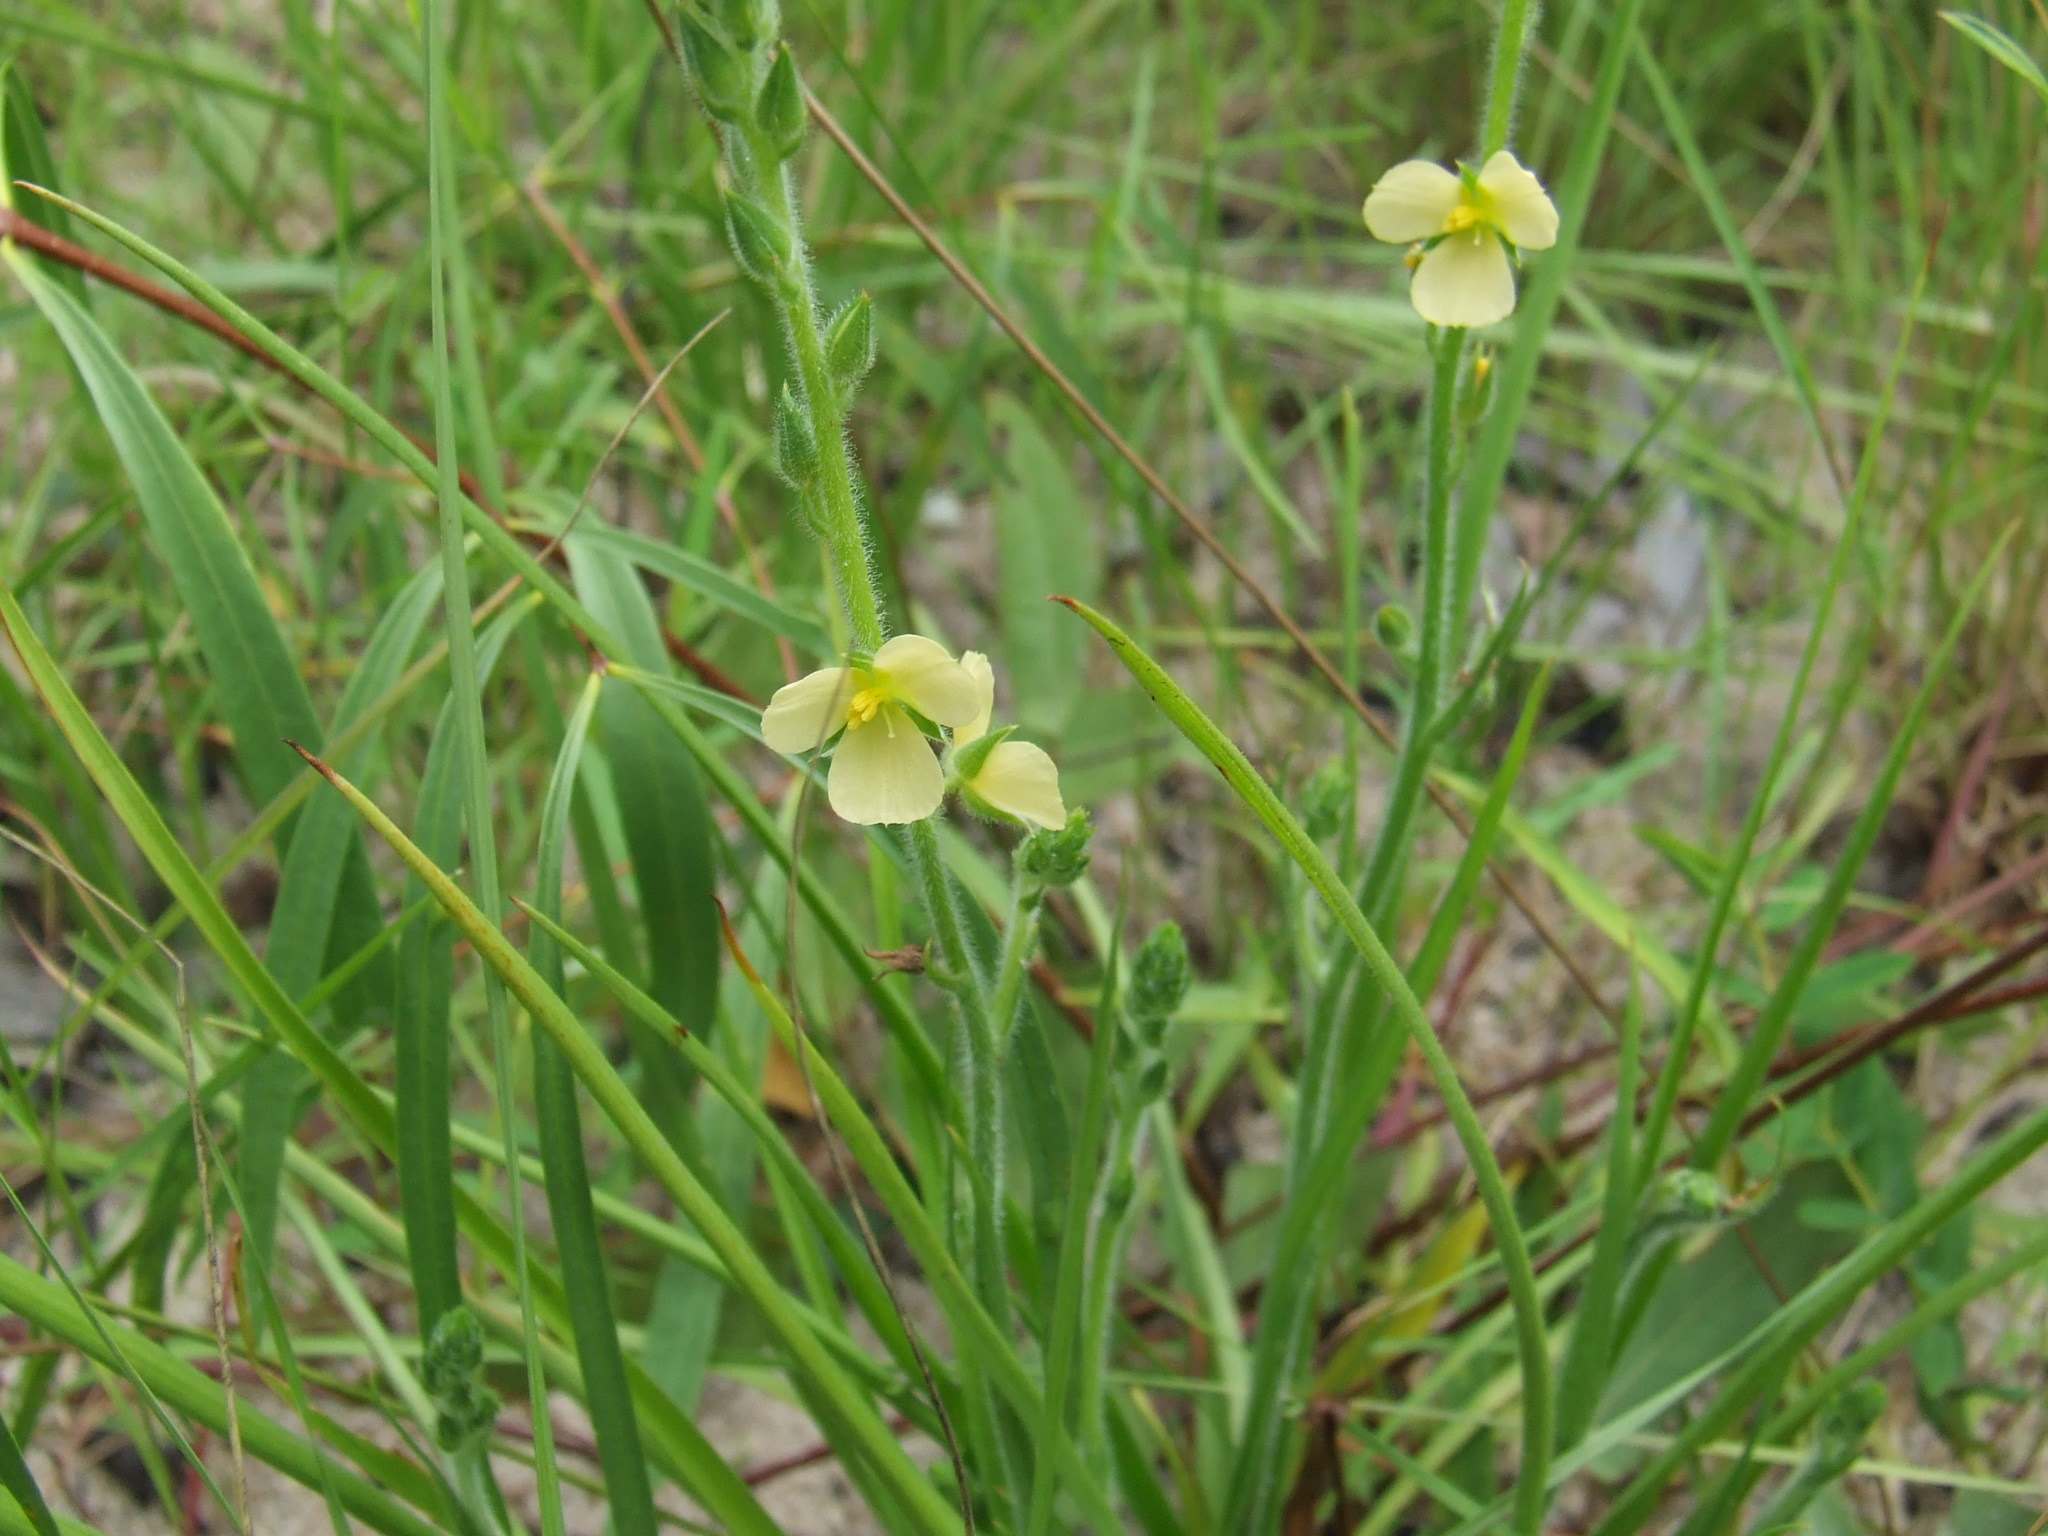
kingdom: Plantae
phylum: Tracheophyta
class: Liliopsida
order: Commelinales
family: Commelinaceae
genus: Cartonema
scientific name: Cartonema parviflorum
